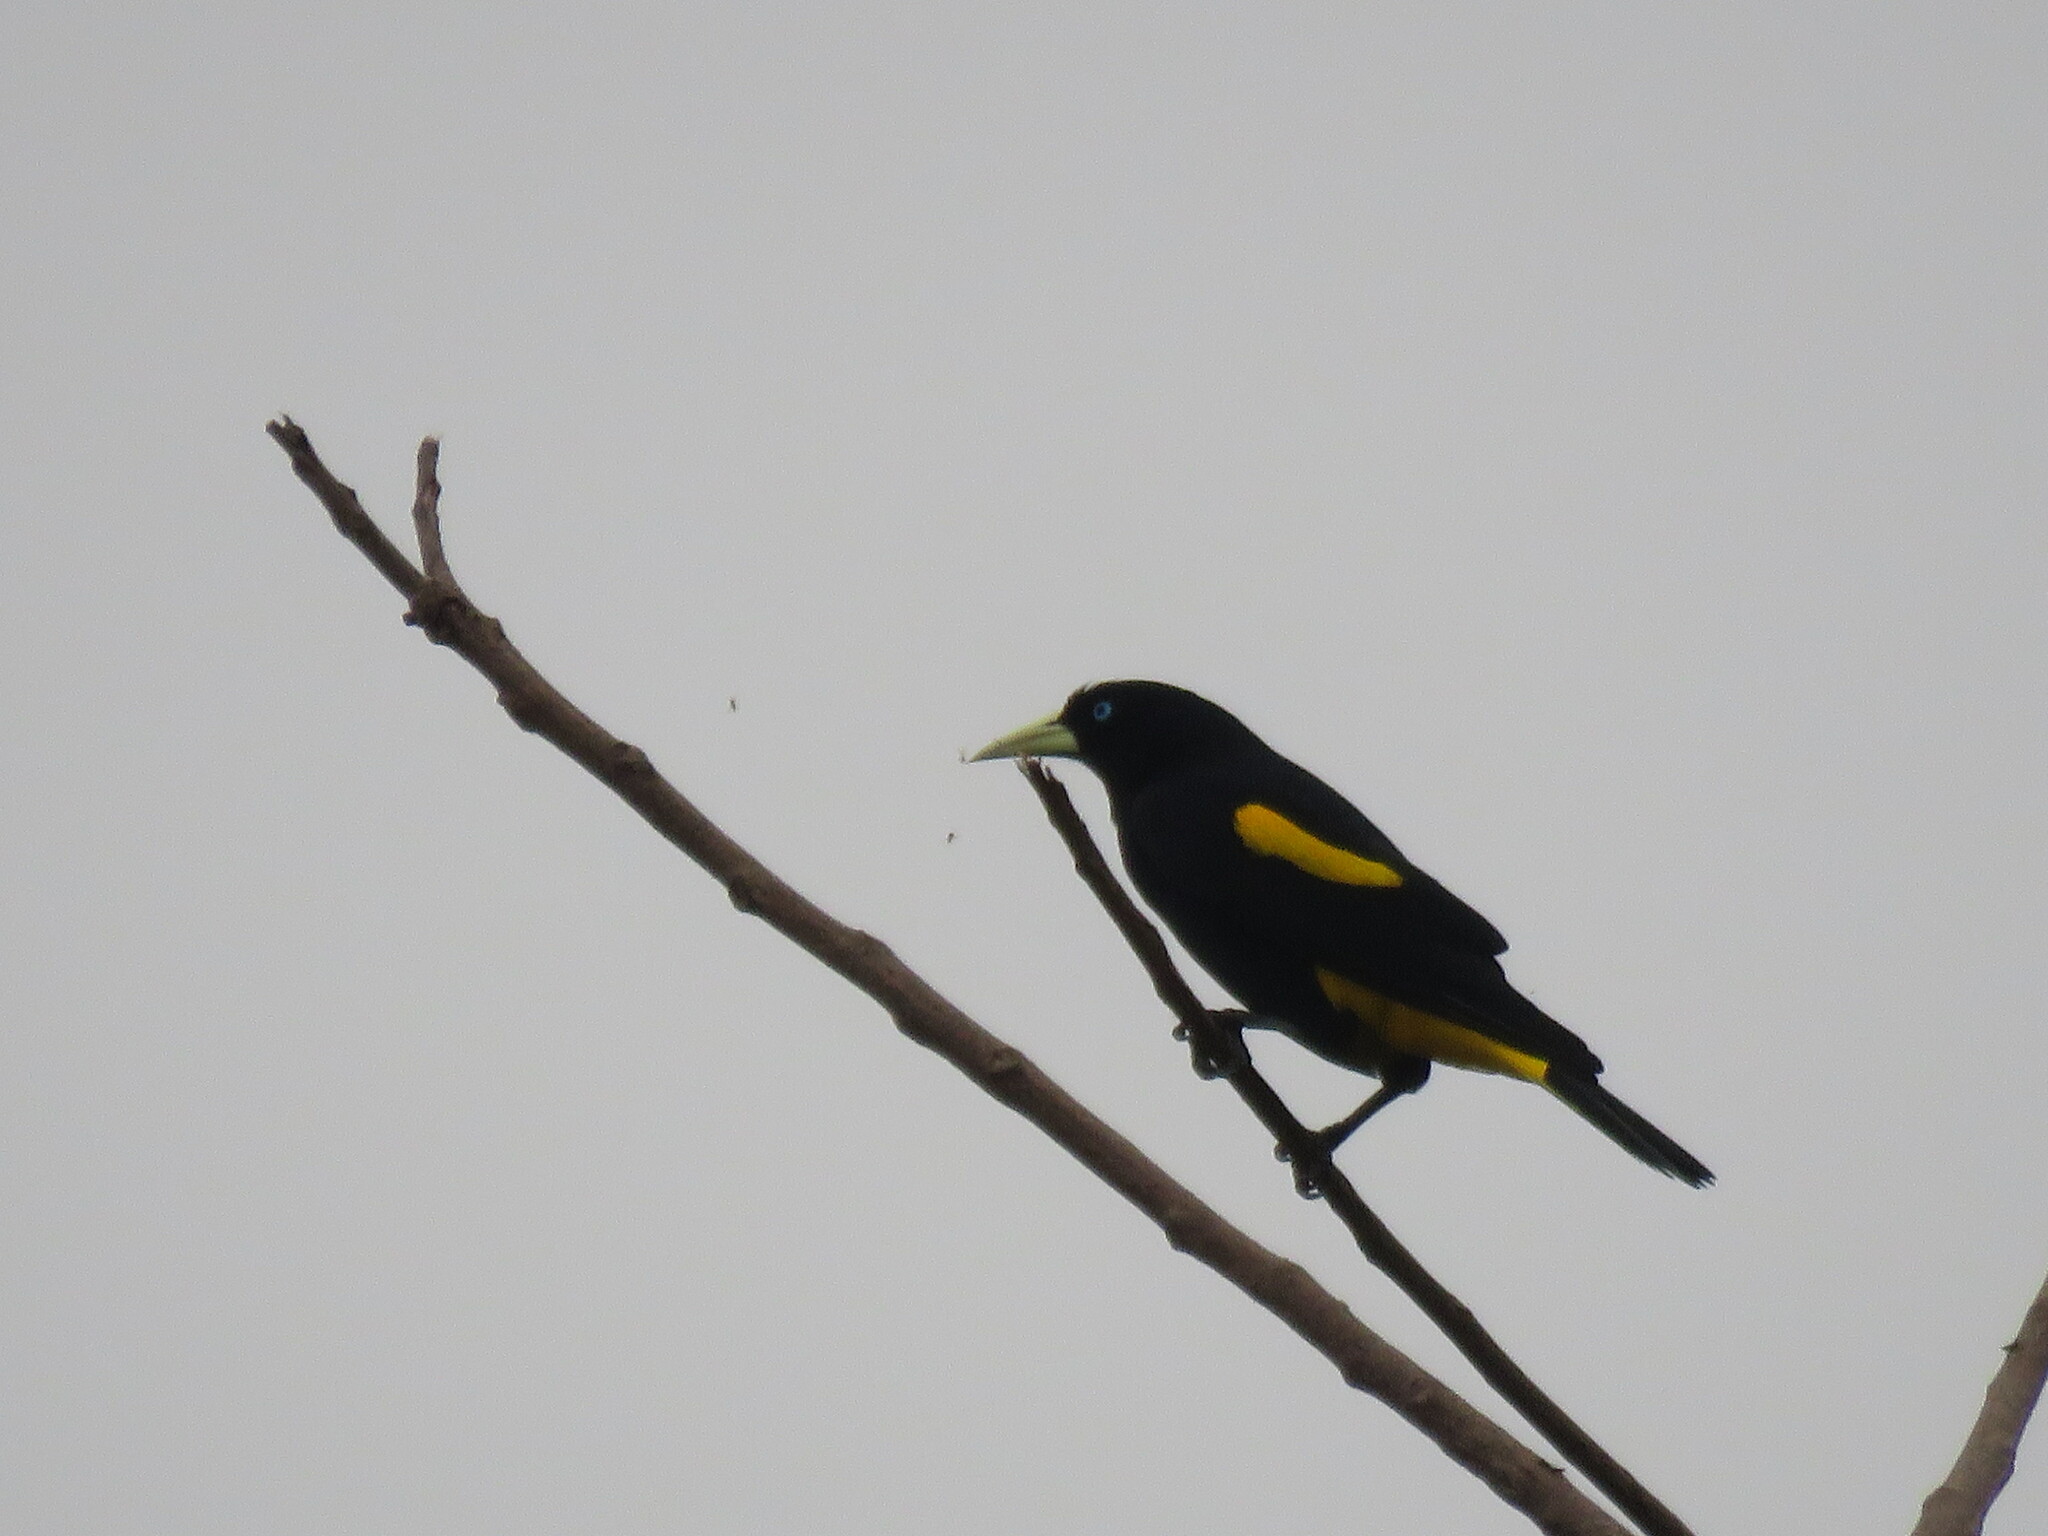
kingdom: Animalia
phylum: Chordata
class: Aves
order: Passeriformes
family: Icteridae
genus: Cacicus
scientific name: Cacicus cela
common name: Yellow-rumped cacique
